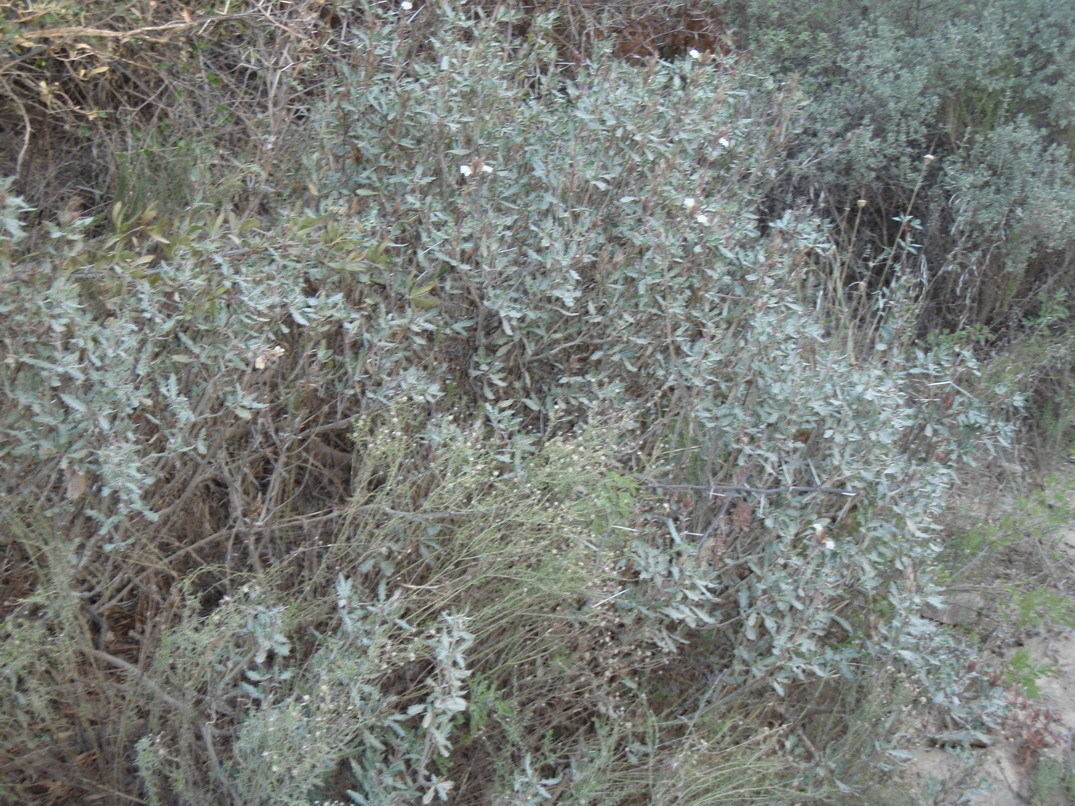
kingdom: Plantae
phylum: Tracheophyta
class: Magnoliopsida
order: Lamiales
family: Acanthaceae
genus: Blepharis
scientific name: Blepharis capensis
